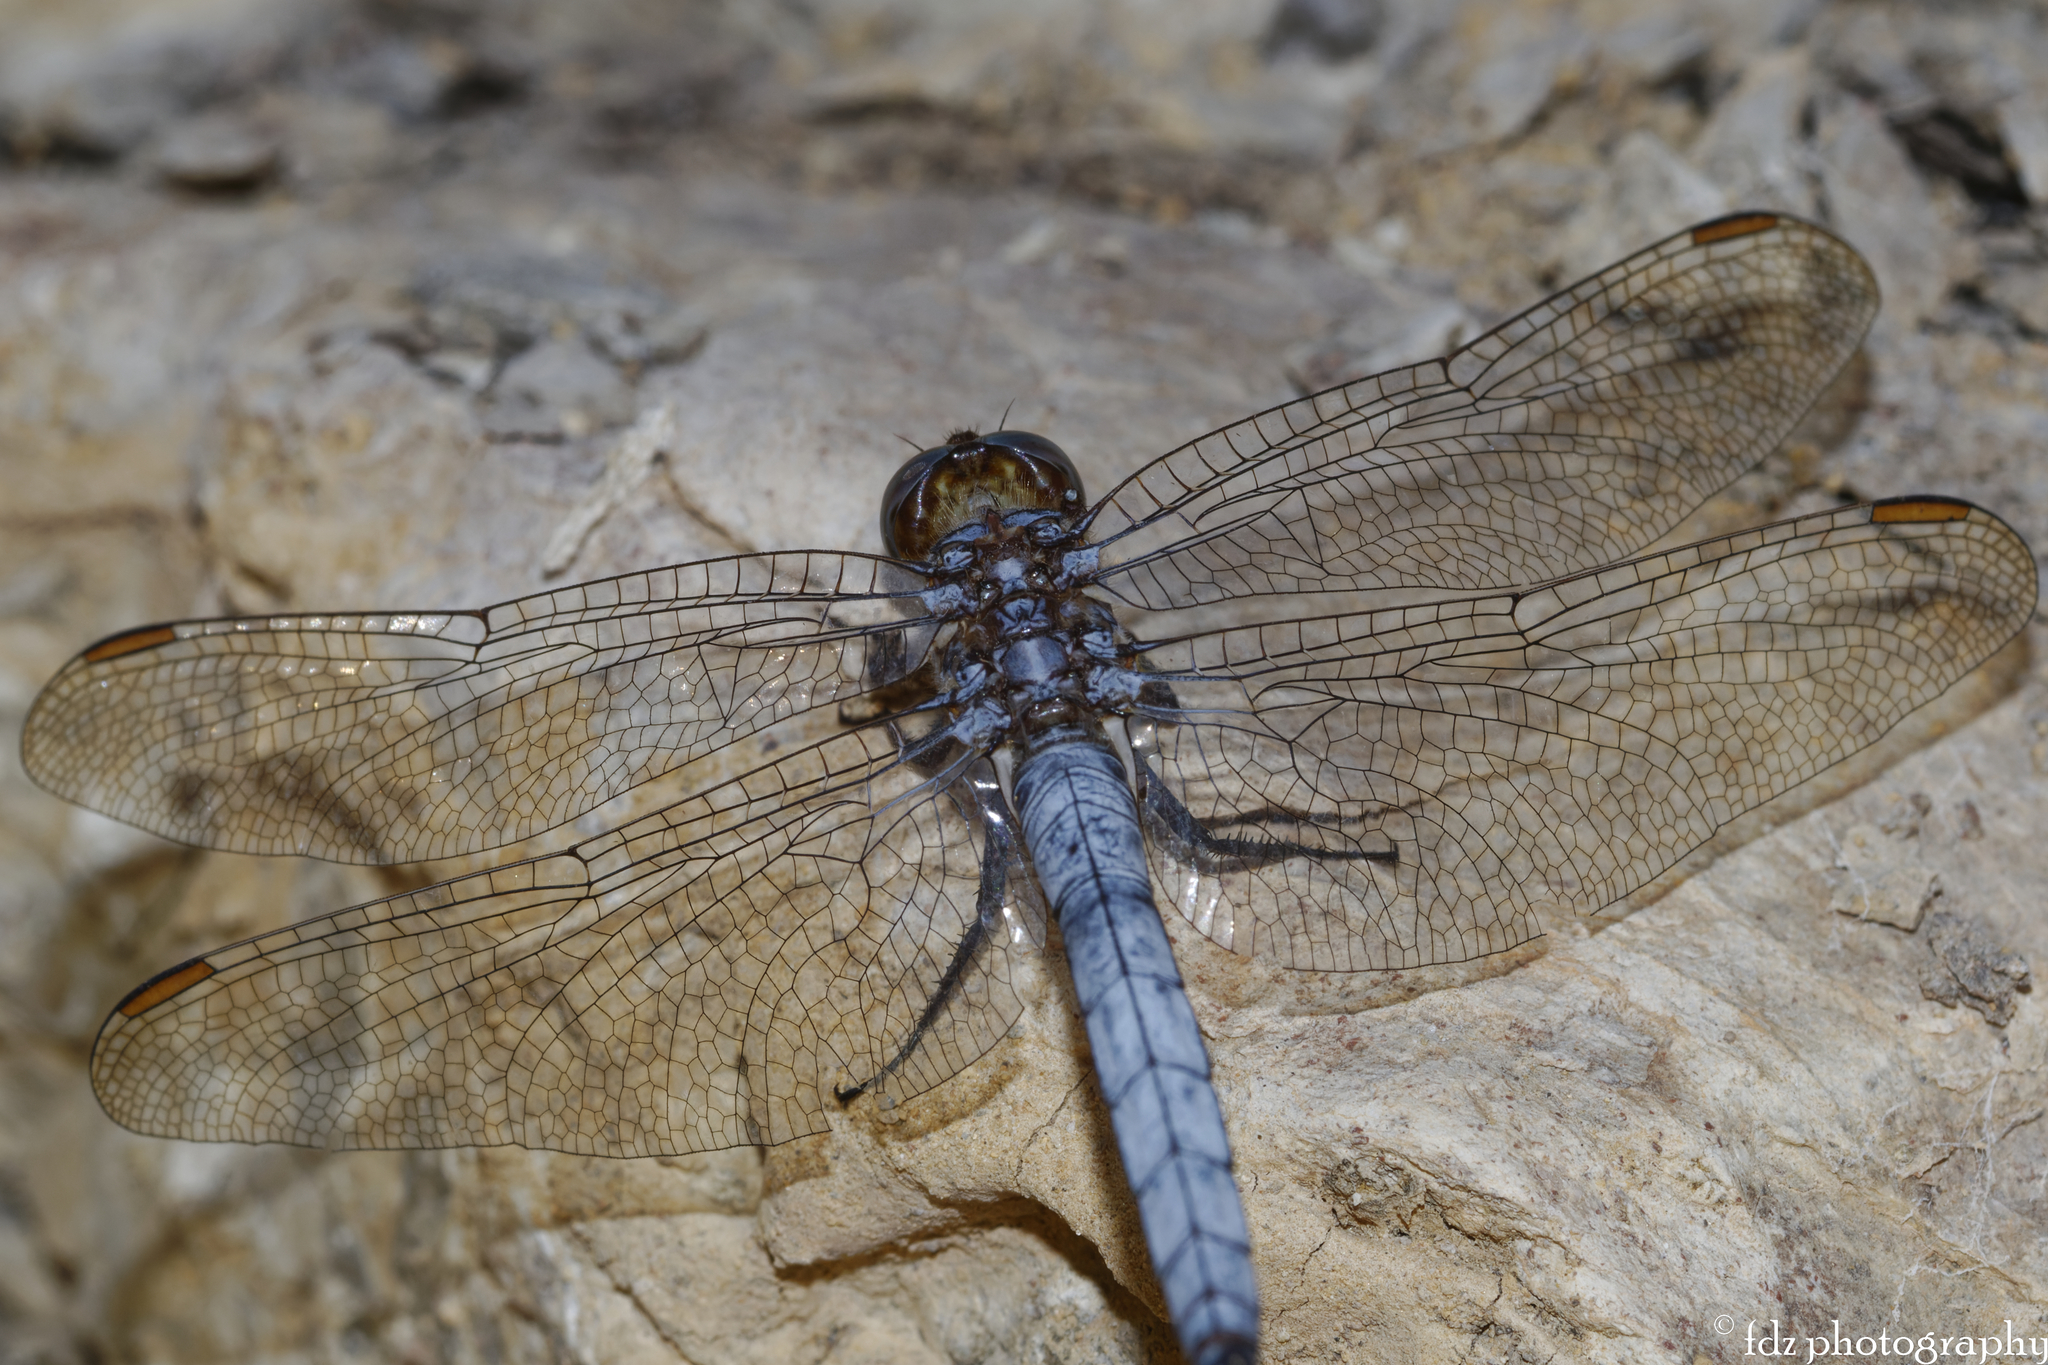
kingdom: Animalia
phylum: Arthropoda
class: Insecta
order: Odonata
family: Libellulidae
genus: Orthetrum
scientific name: Orthetrum coerulescens
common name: Keeled skimmer
